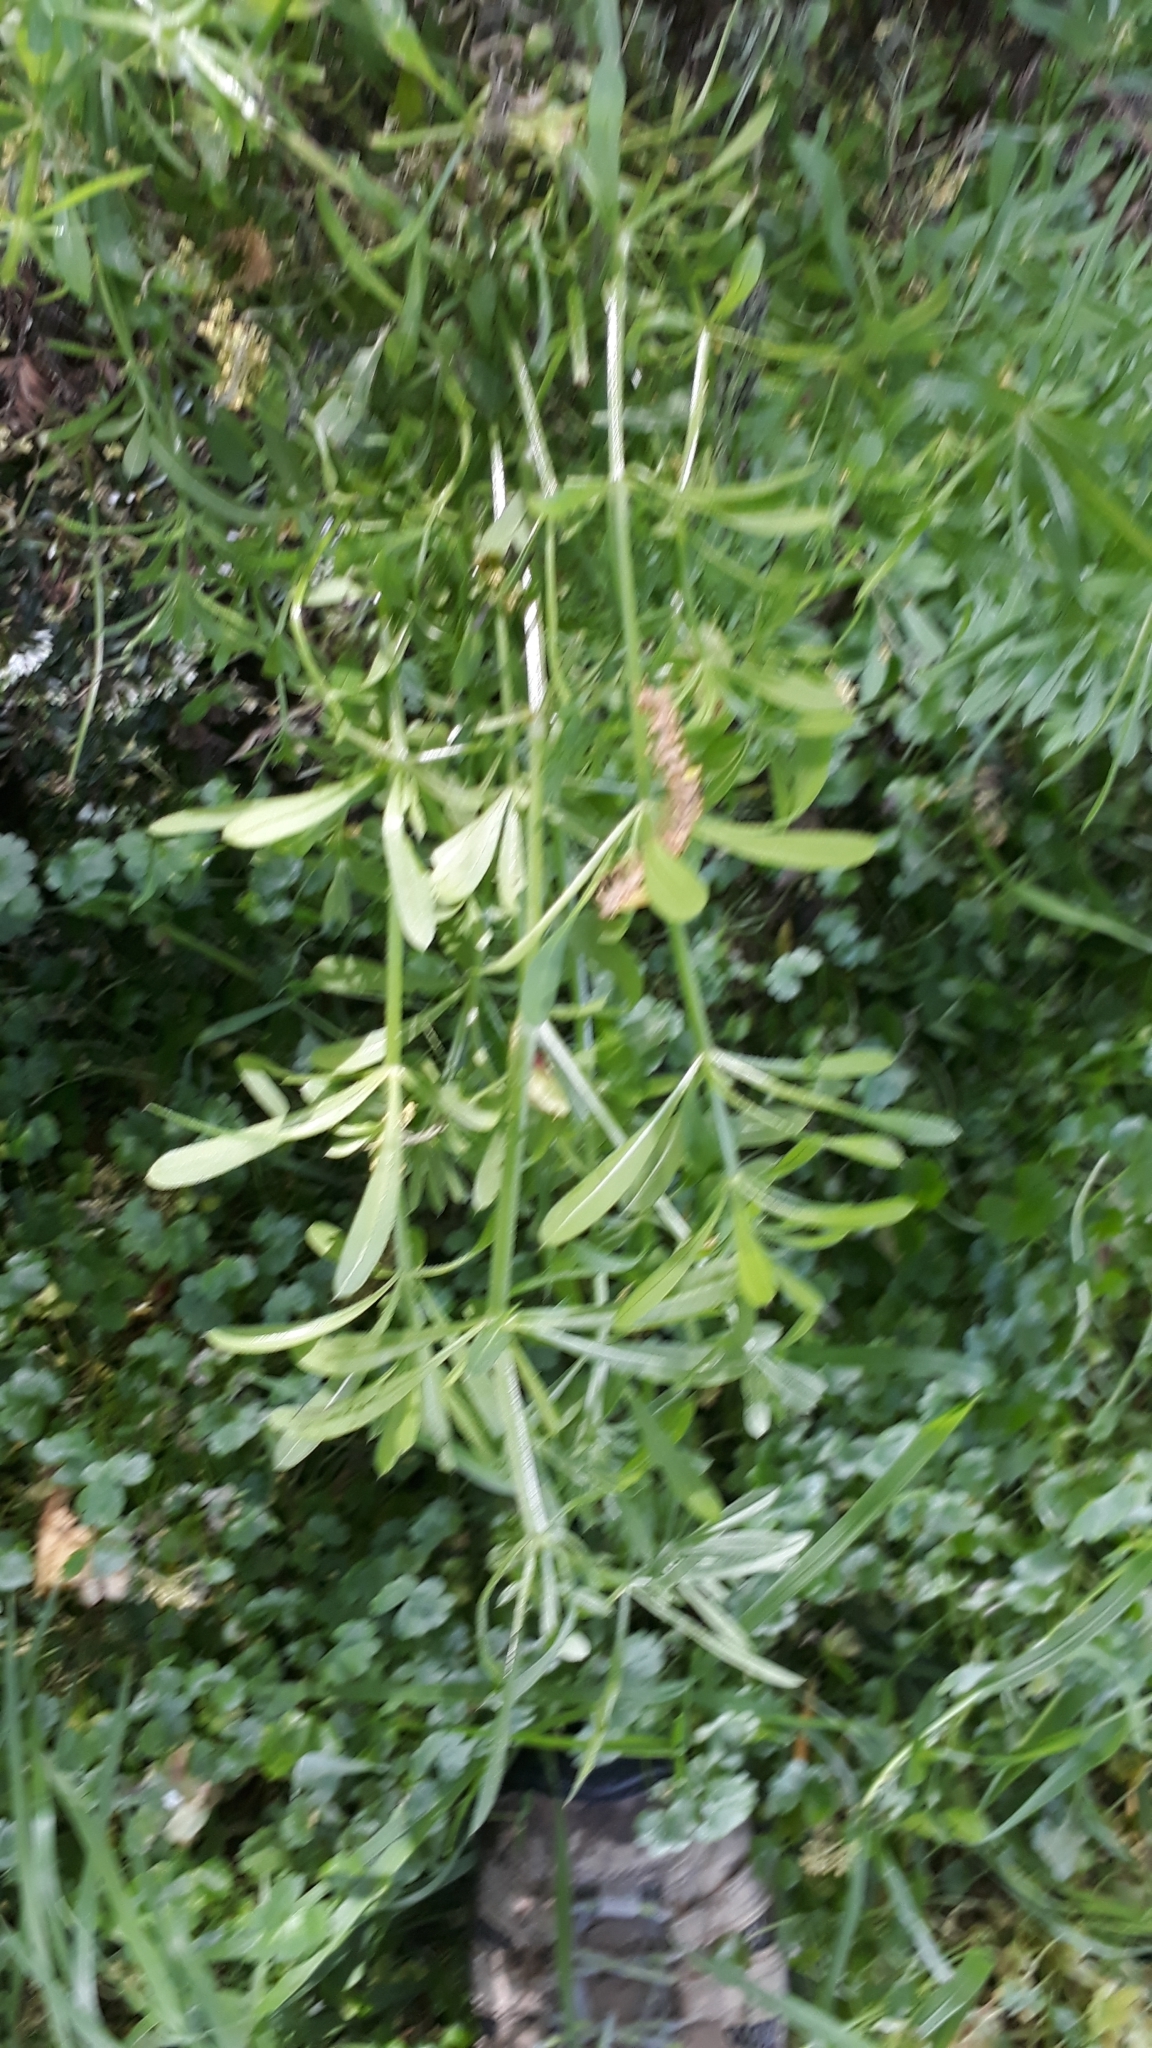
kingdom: Plantae
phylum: Tracheophyta
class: Magnoliopsida
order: Gentianales
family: Rubiaceae
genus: Galium
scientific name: Galium aparine
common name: Cleavers
